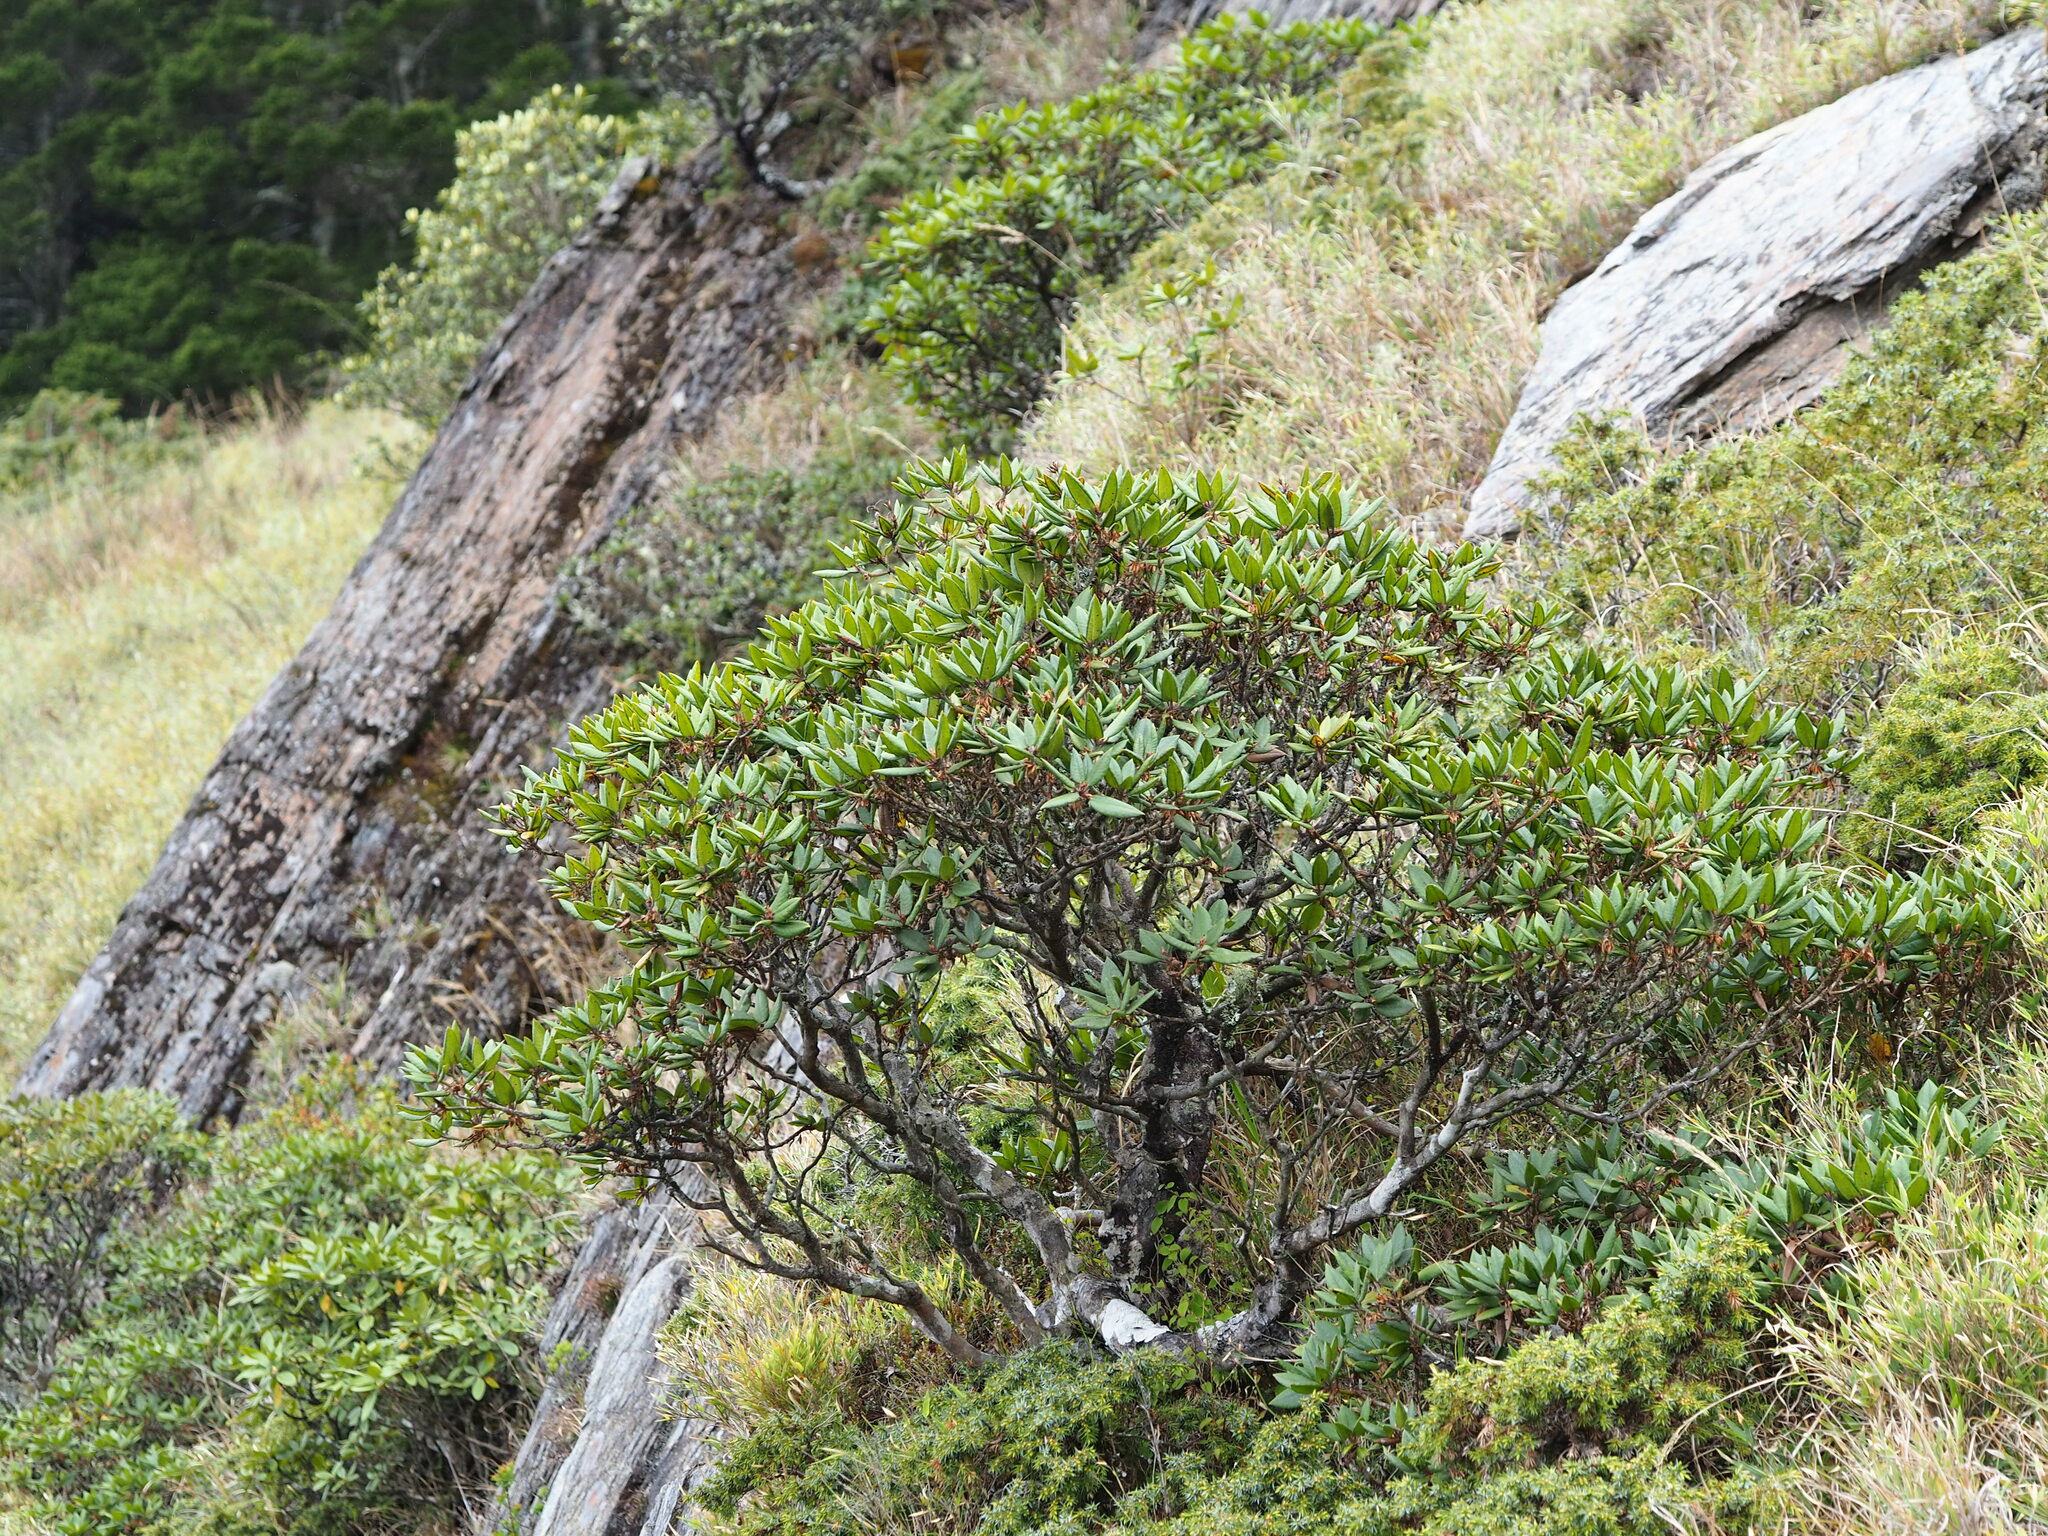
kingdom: Plantae
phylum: Tracheophyta
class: Magnoliopsida
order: Ericales
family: Ericaceae
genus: Rhododendron
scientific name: Rhododendron pseudochrysanthum
